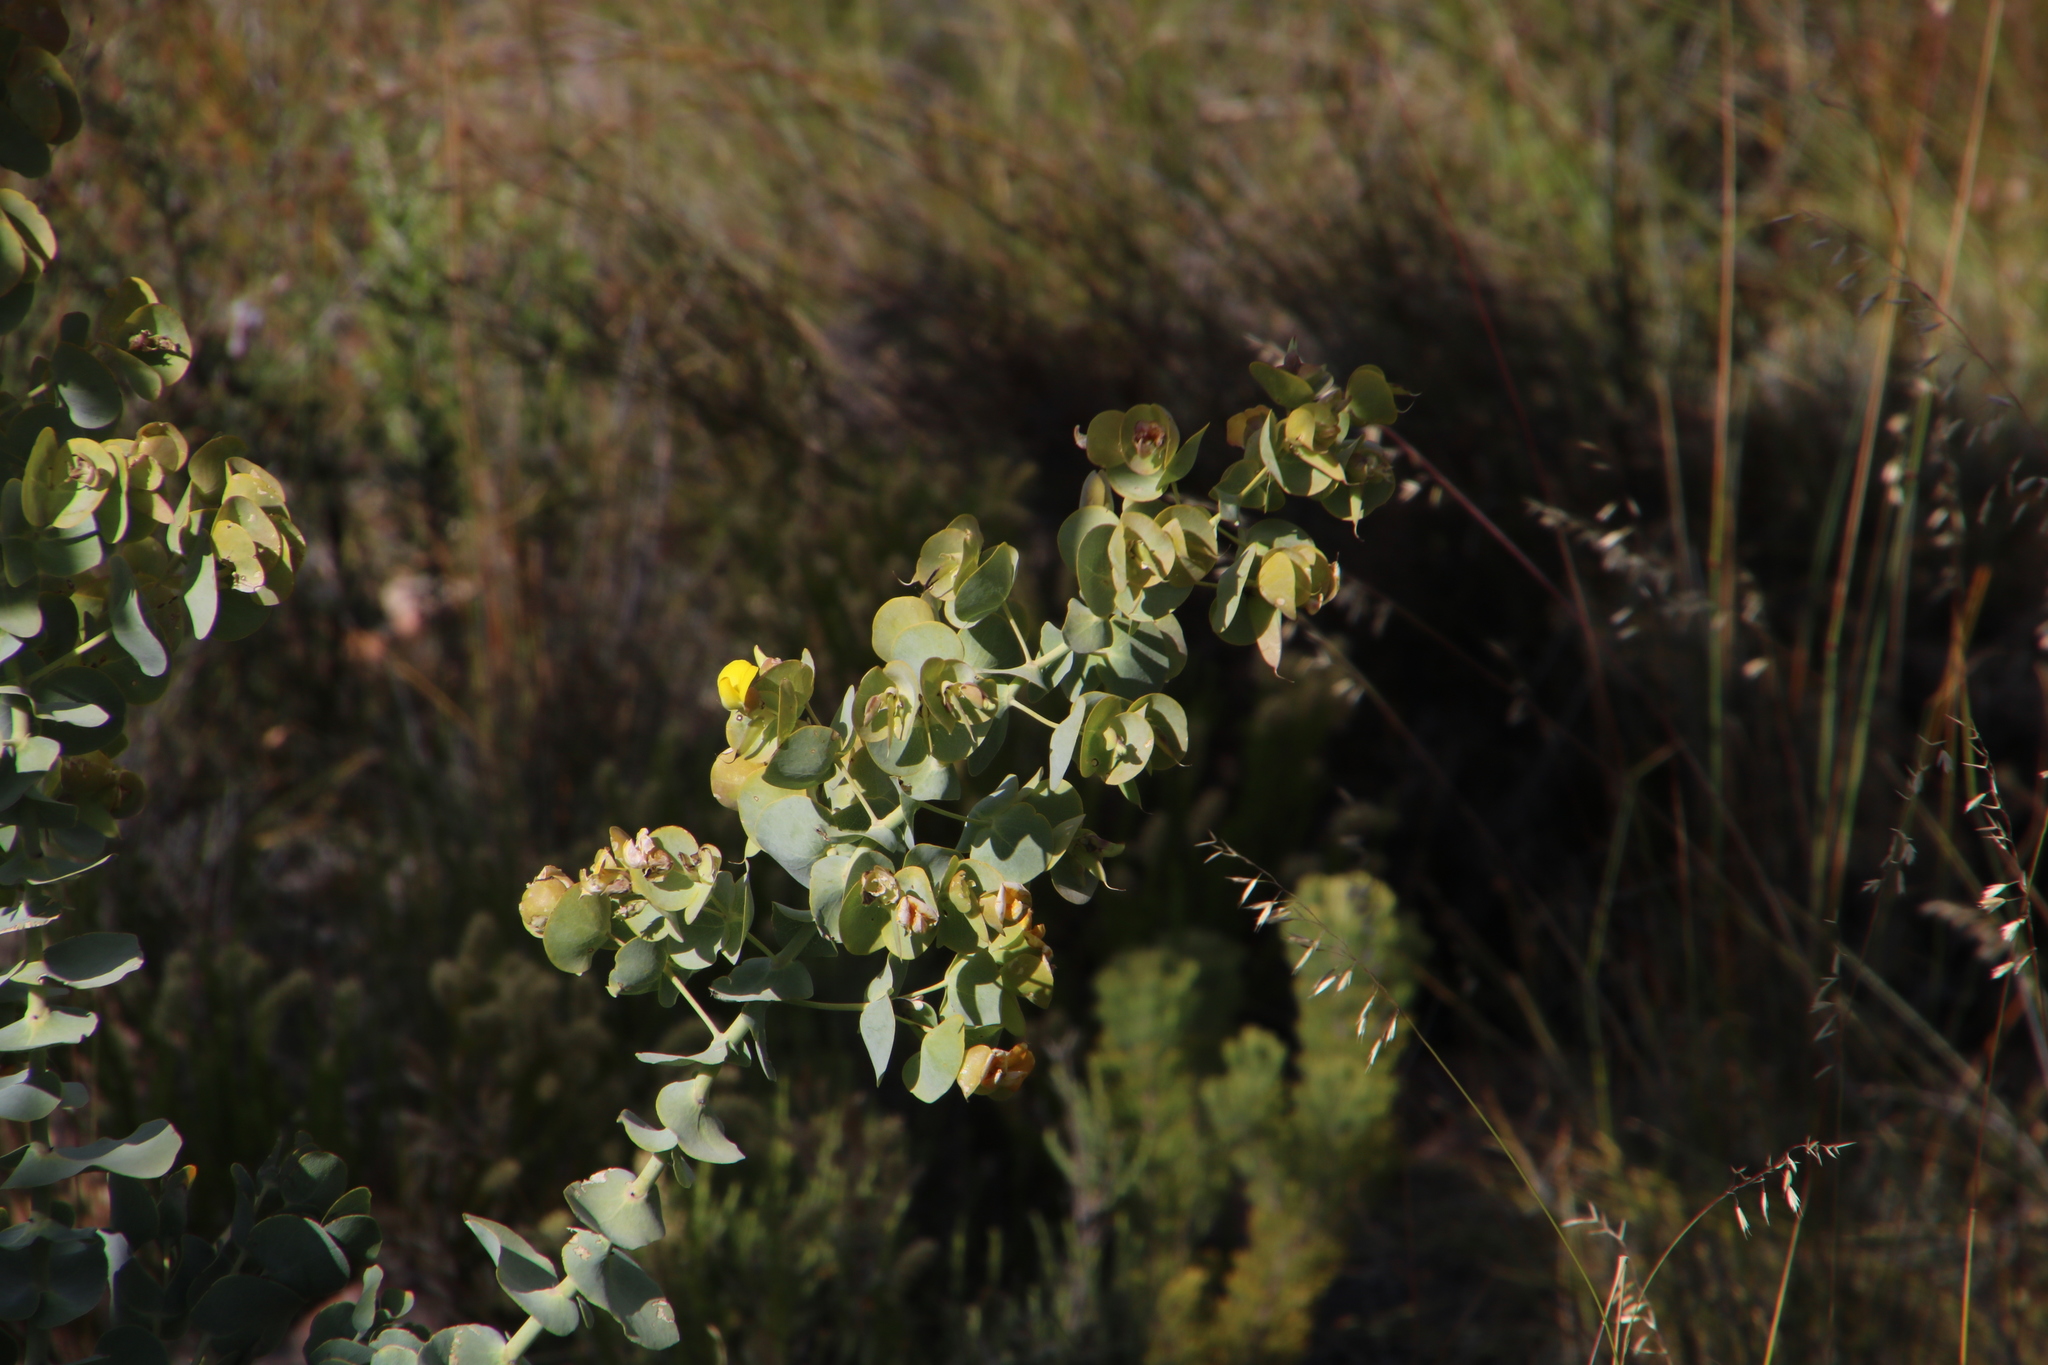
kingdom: Plantae
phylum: Tracheophyta
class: Magnoliopsida
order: Fabales
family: Fabaceae
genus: Rafnia
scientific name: Rafnia amplexicaulis
